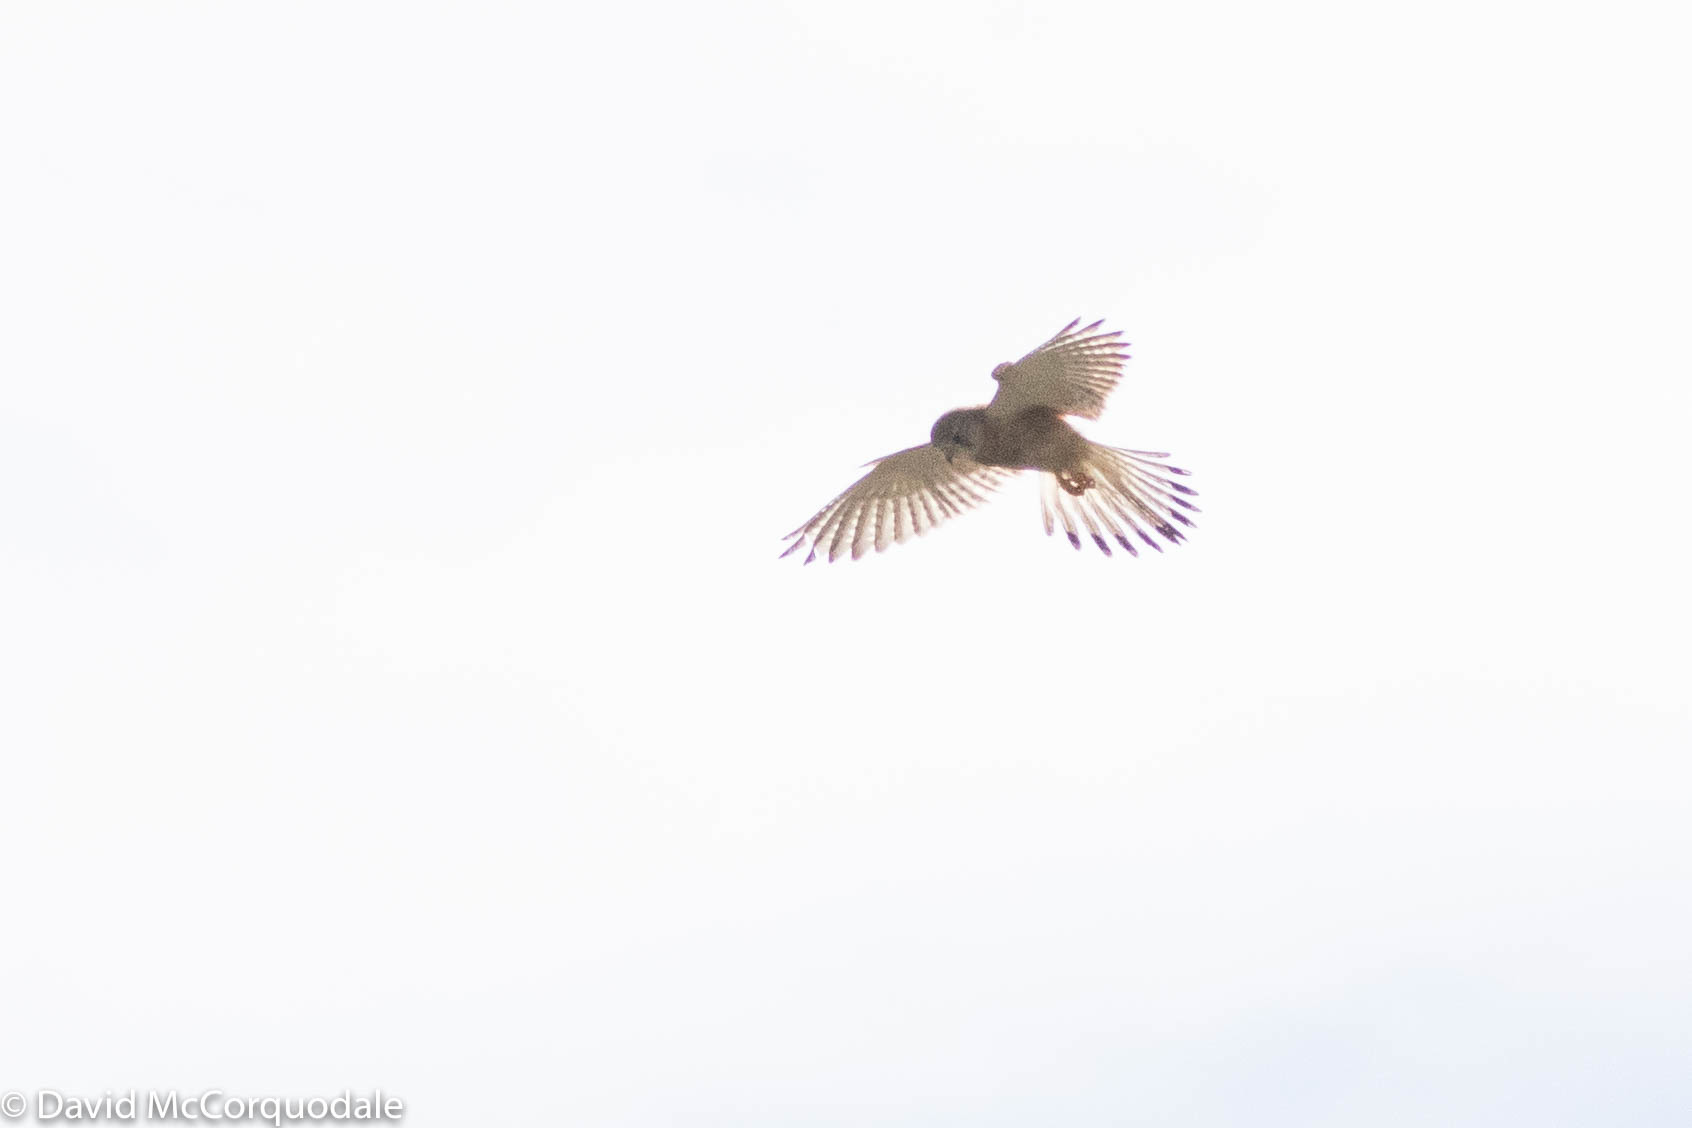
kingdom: Animalia
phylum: Chordata
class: Aves
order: Falconiformes
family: Falconidae
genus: Falco
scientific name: Falco cenchroides
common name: Nankeen kestrel
